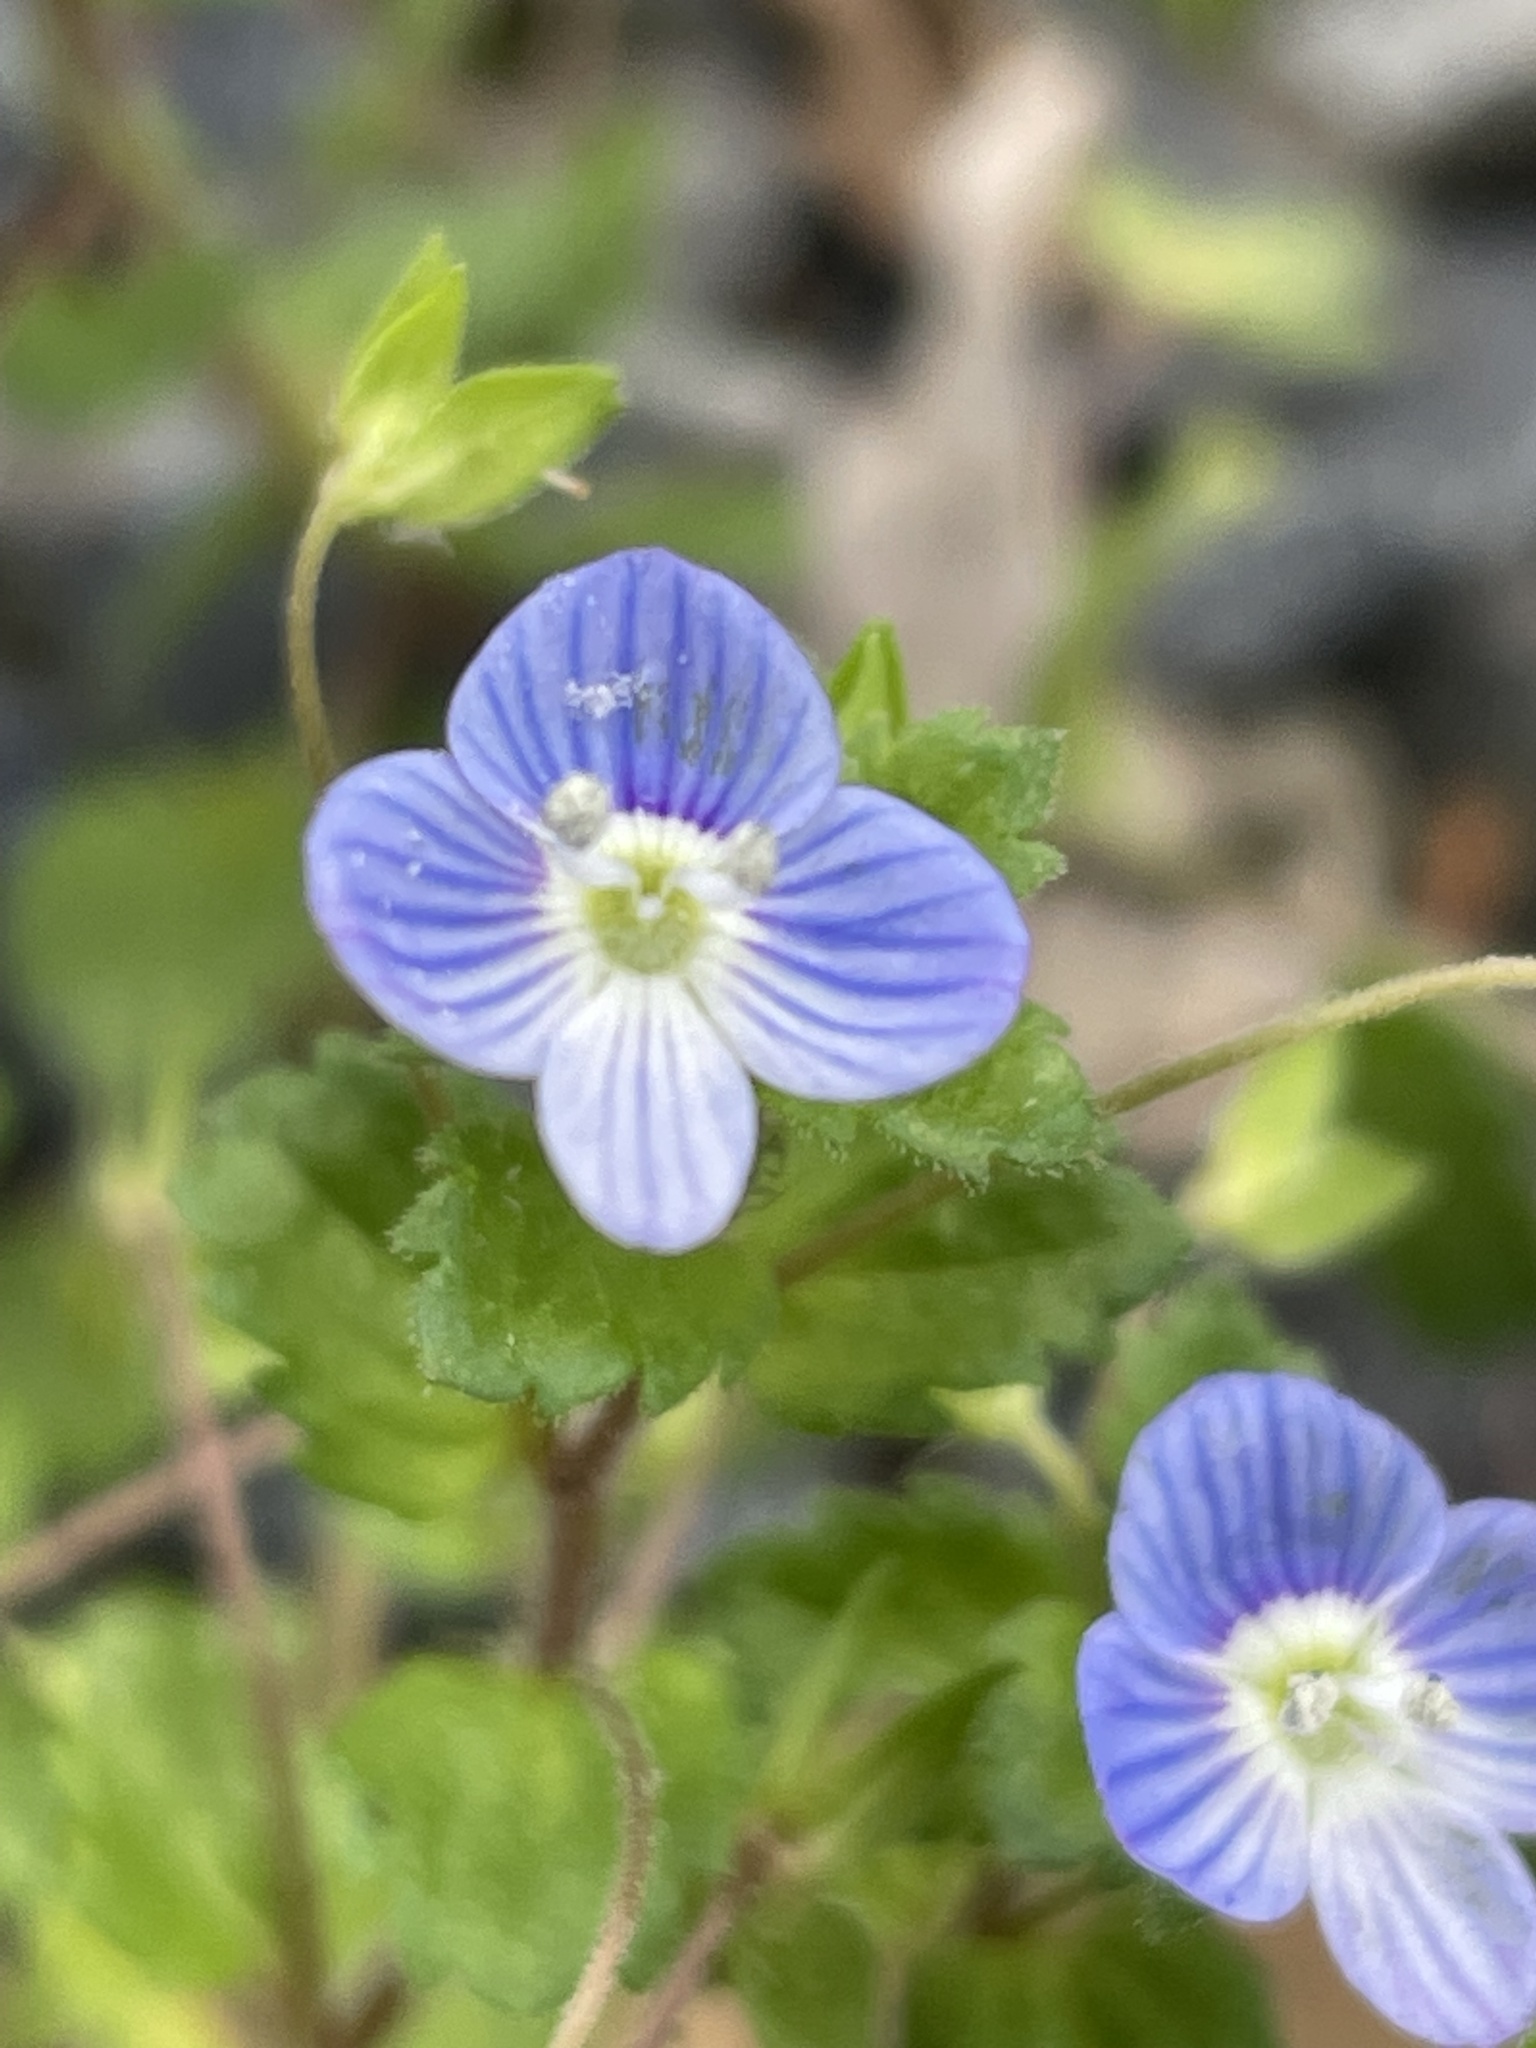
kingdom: Plantae
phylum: Tracheophyta
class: Magnoliopsida
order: Lamiales
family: Plantaginaceae
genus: Veronica
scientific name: Veronica persica
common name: Common field-speedwell
